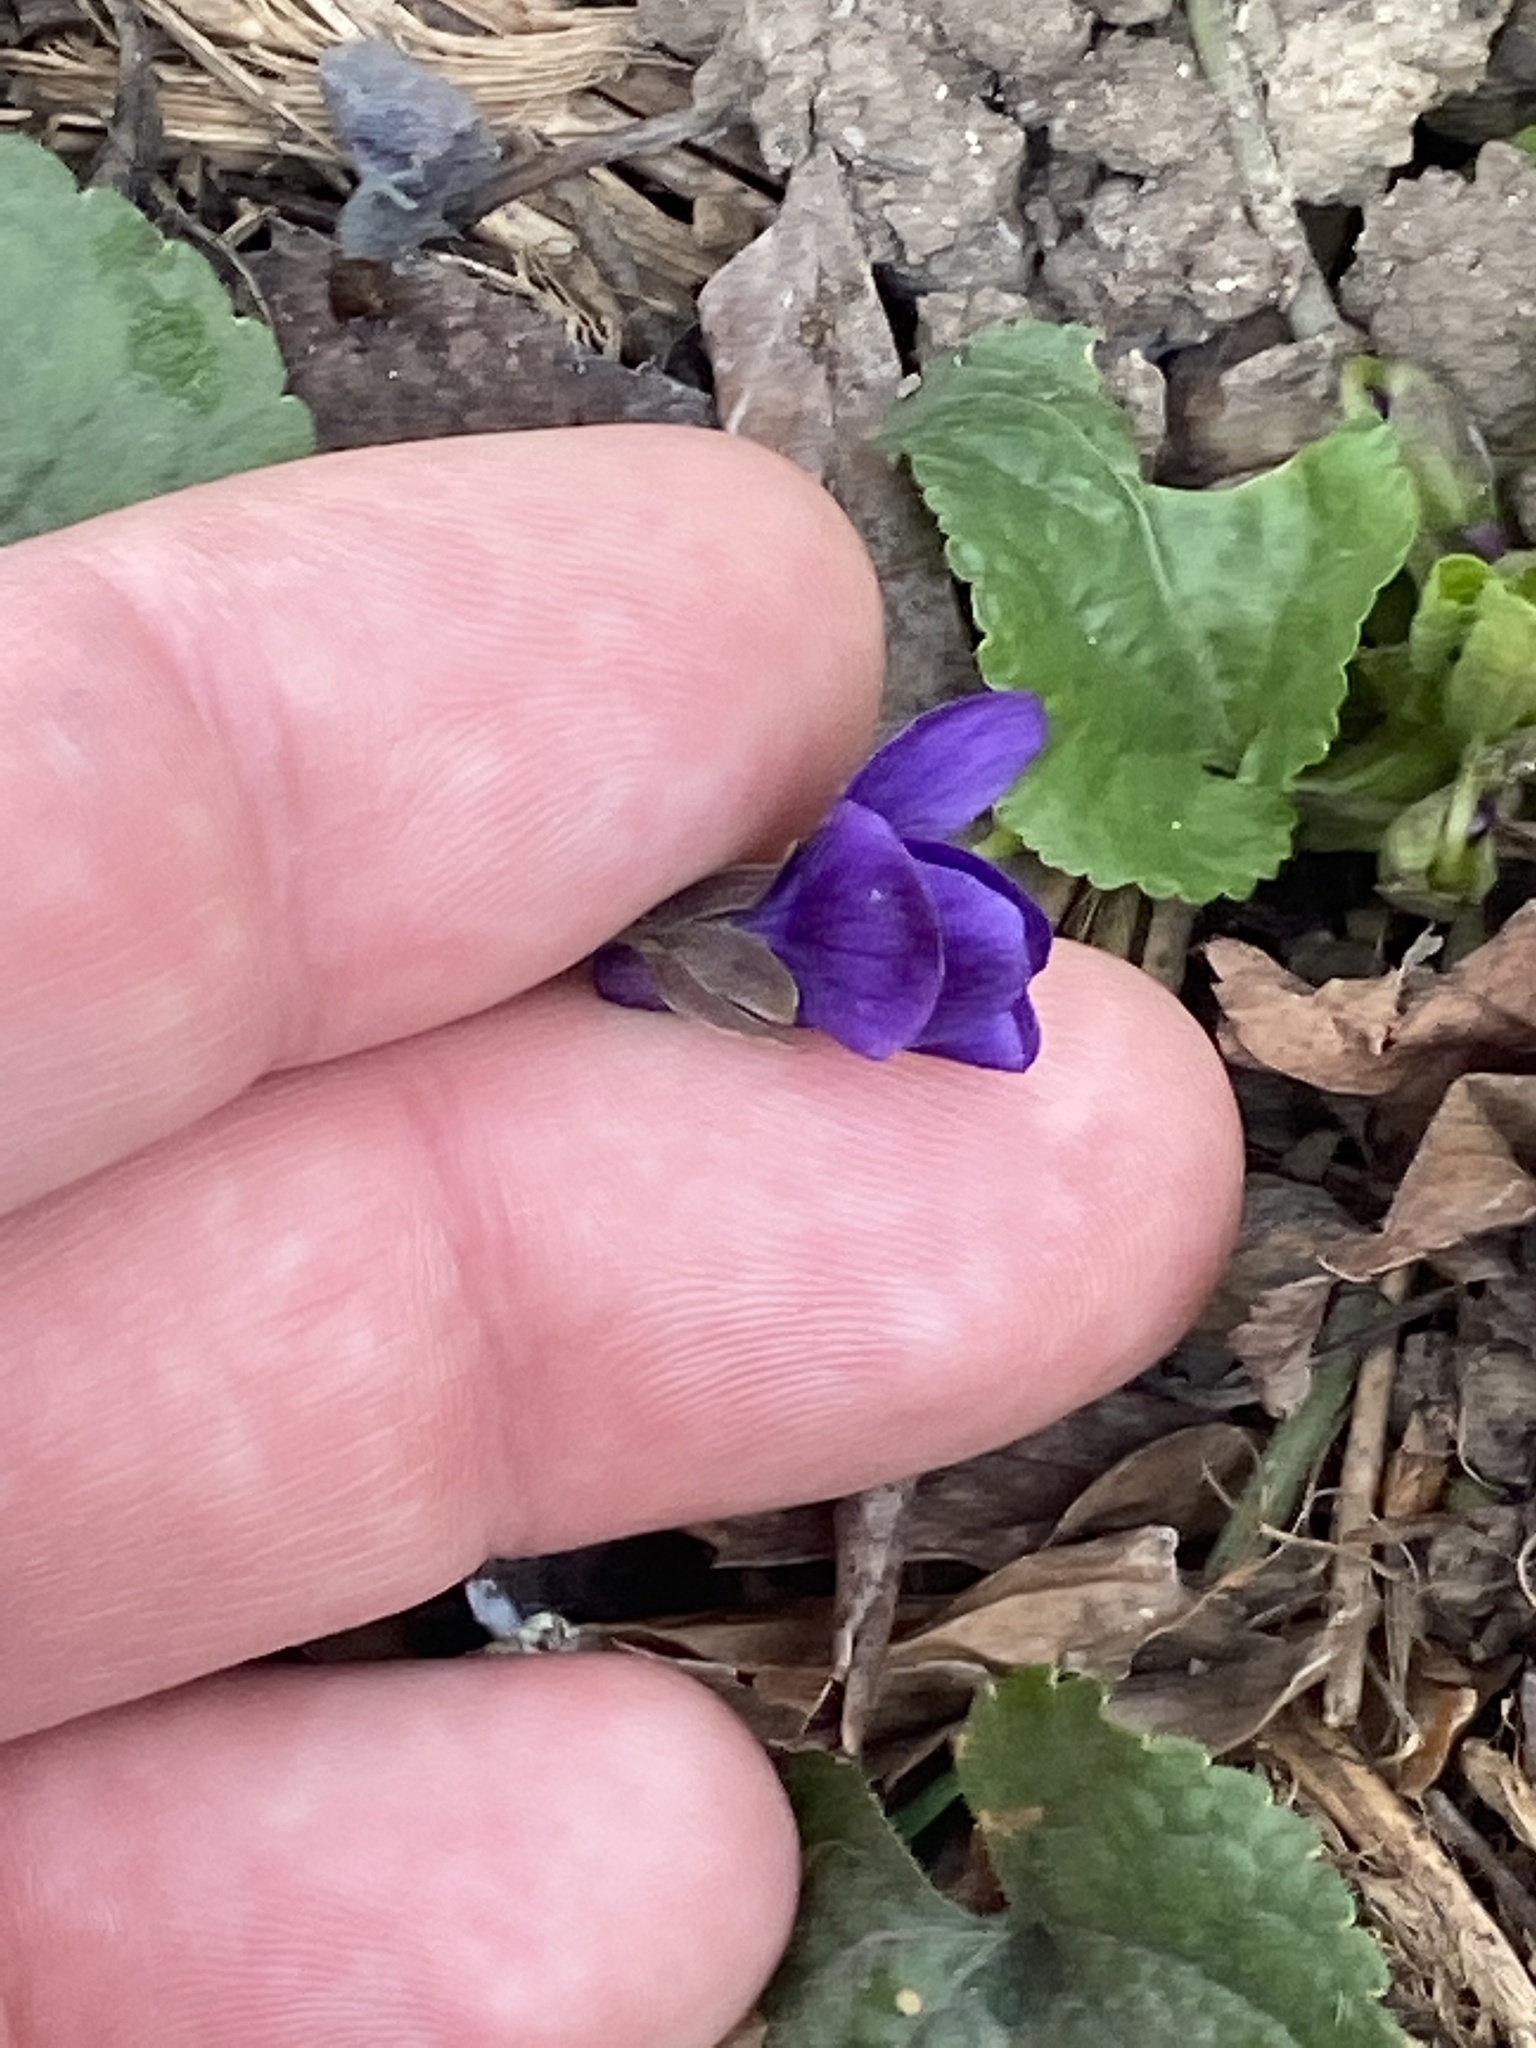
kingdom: Plantae
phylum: Tracheophyta
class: Magnoliopsida
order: Malpighiales
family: Violaceae
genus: Viola
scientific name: Viola odorata
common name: Sweet violet
